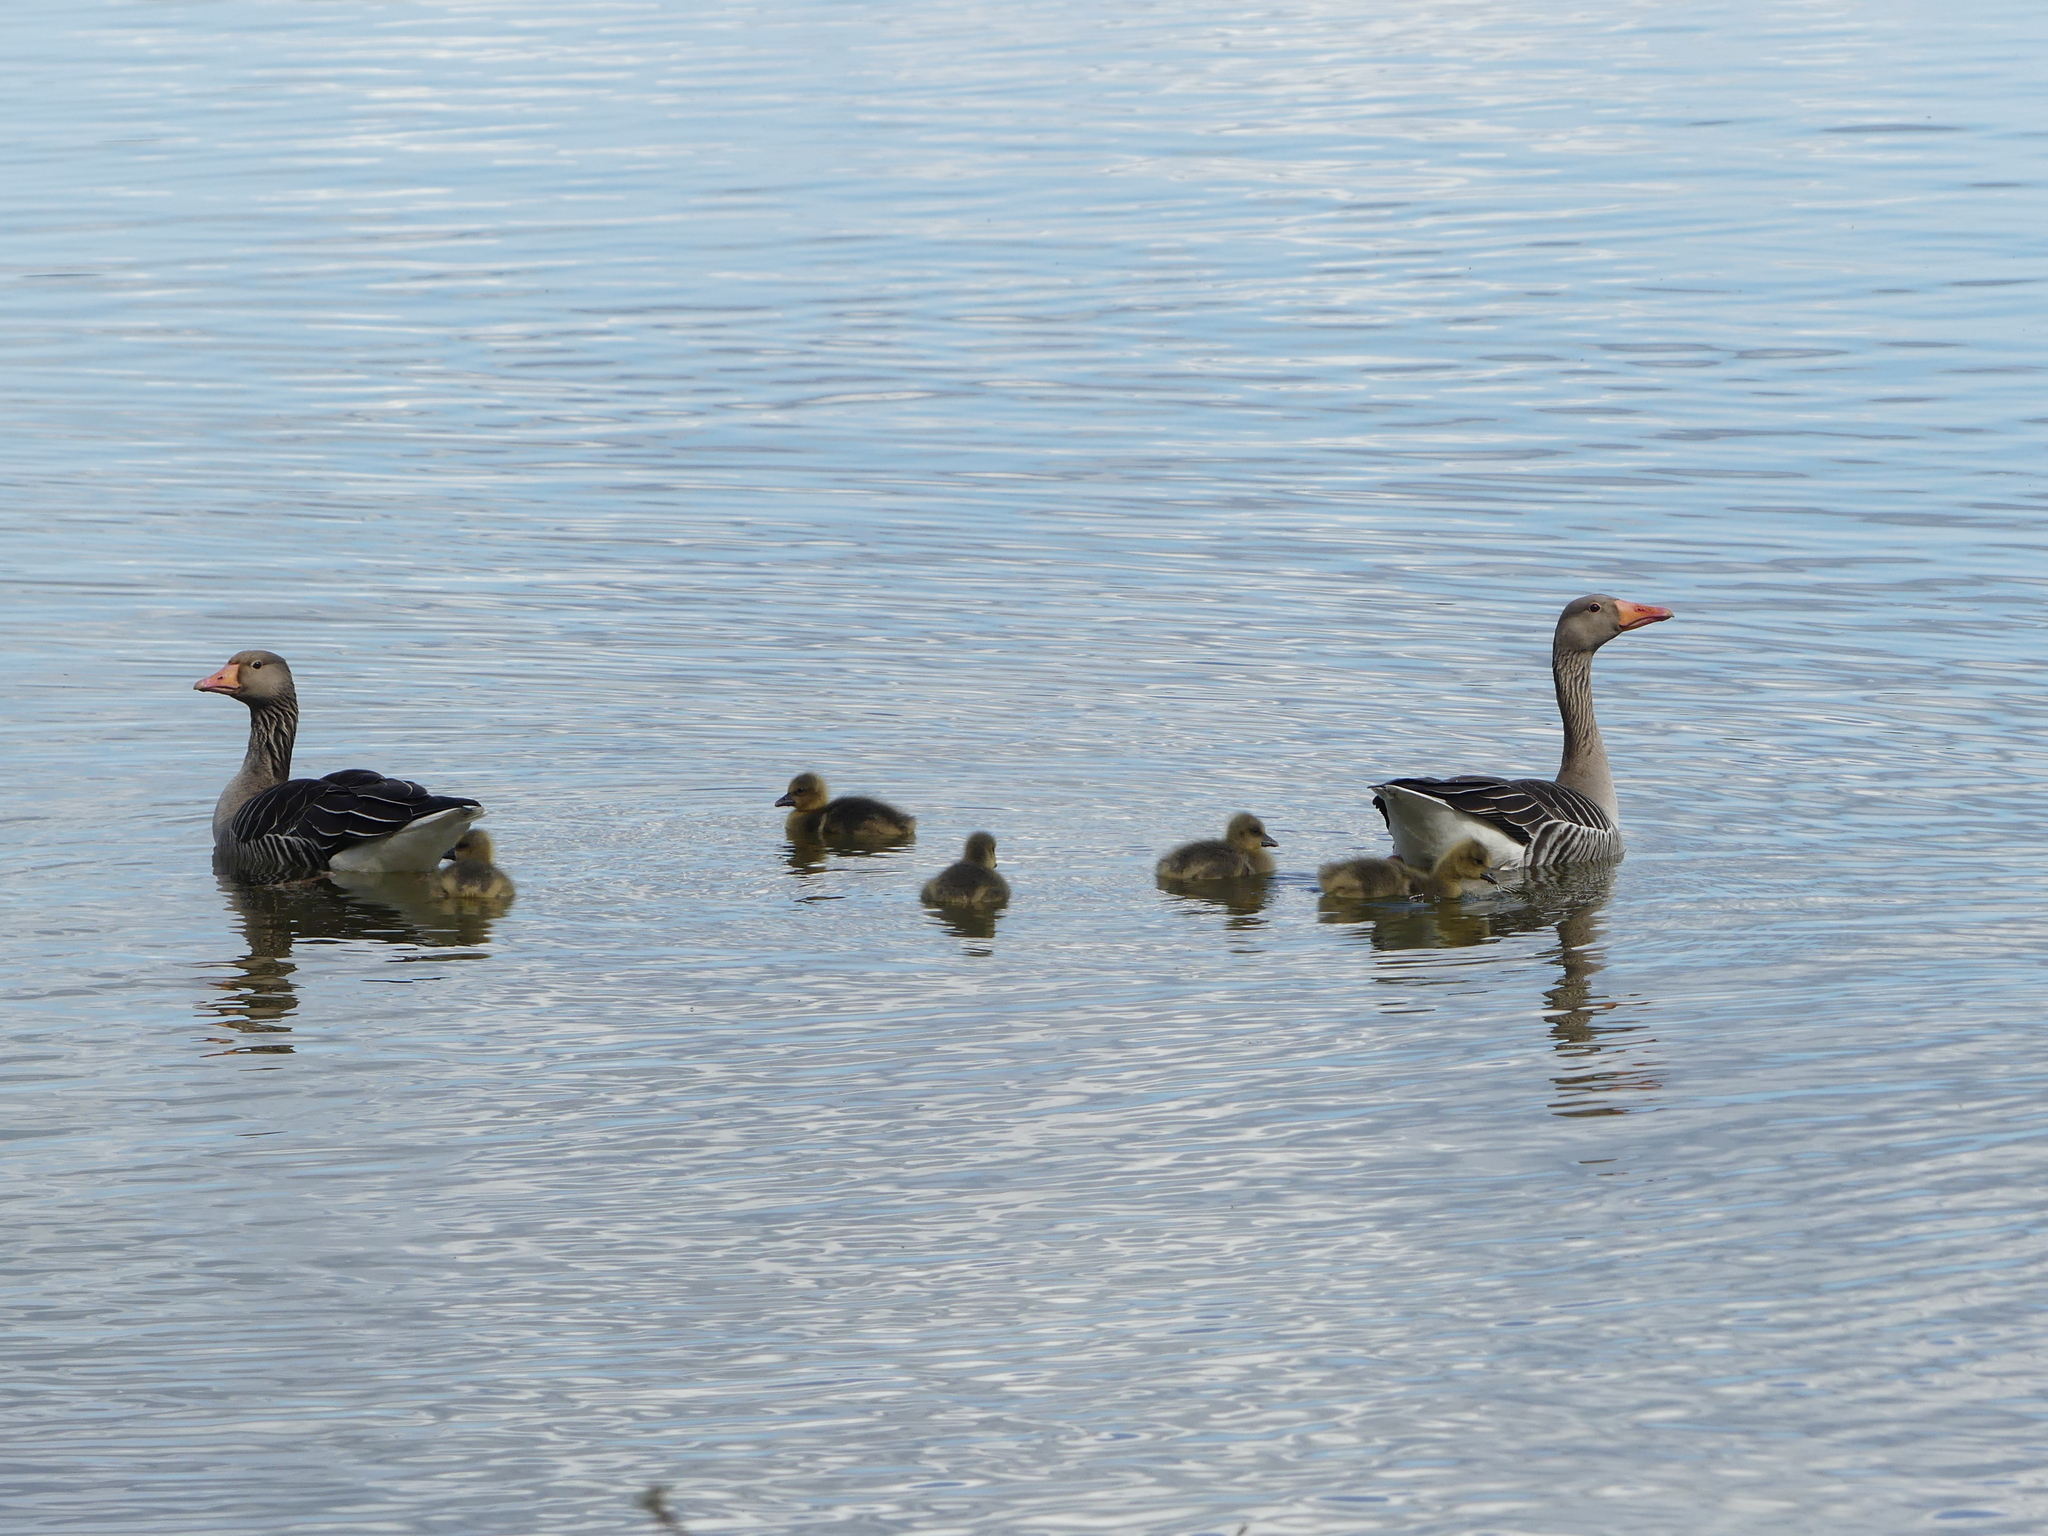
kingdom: Animalia
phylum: Chordata
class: Aves
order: Anseriformes
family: Anatidae
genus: Anser
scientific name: Anser anser
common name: Greylag goose
